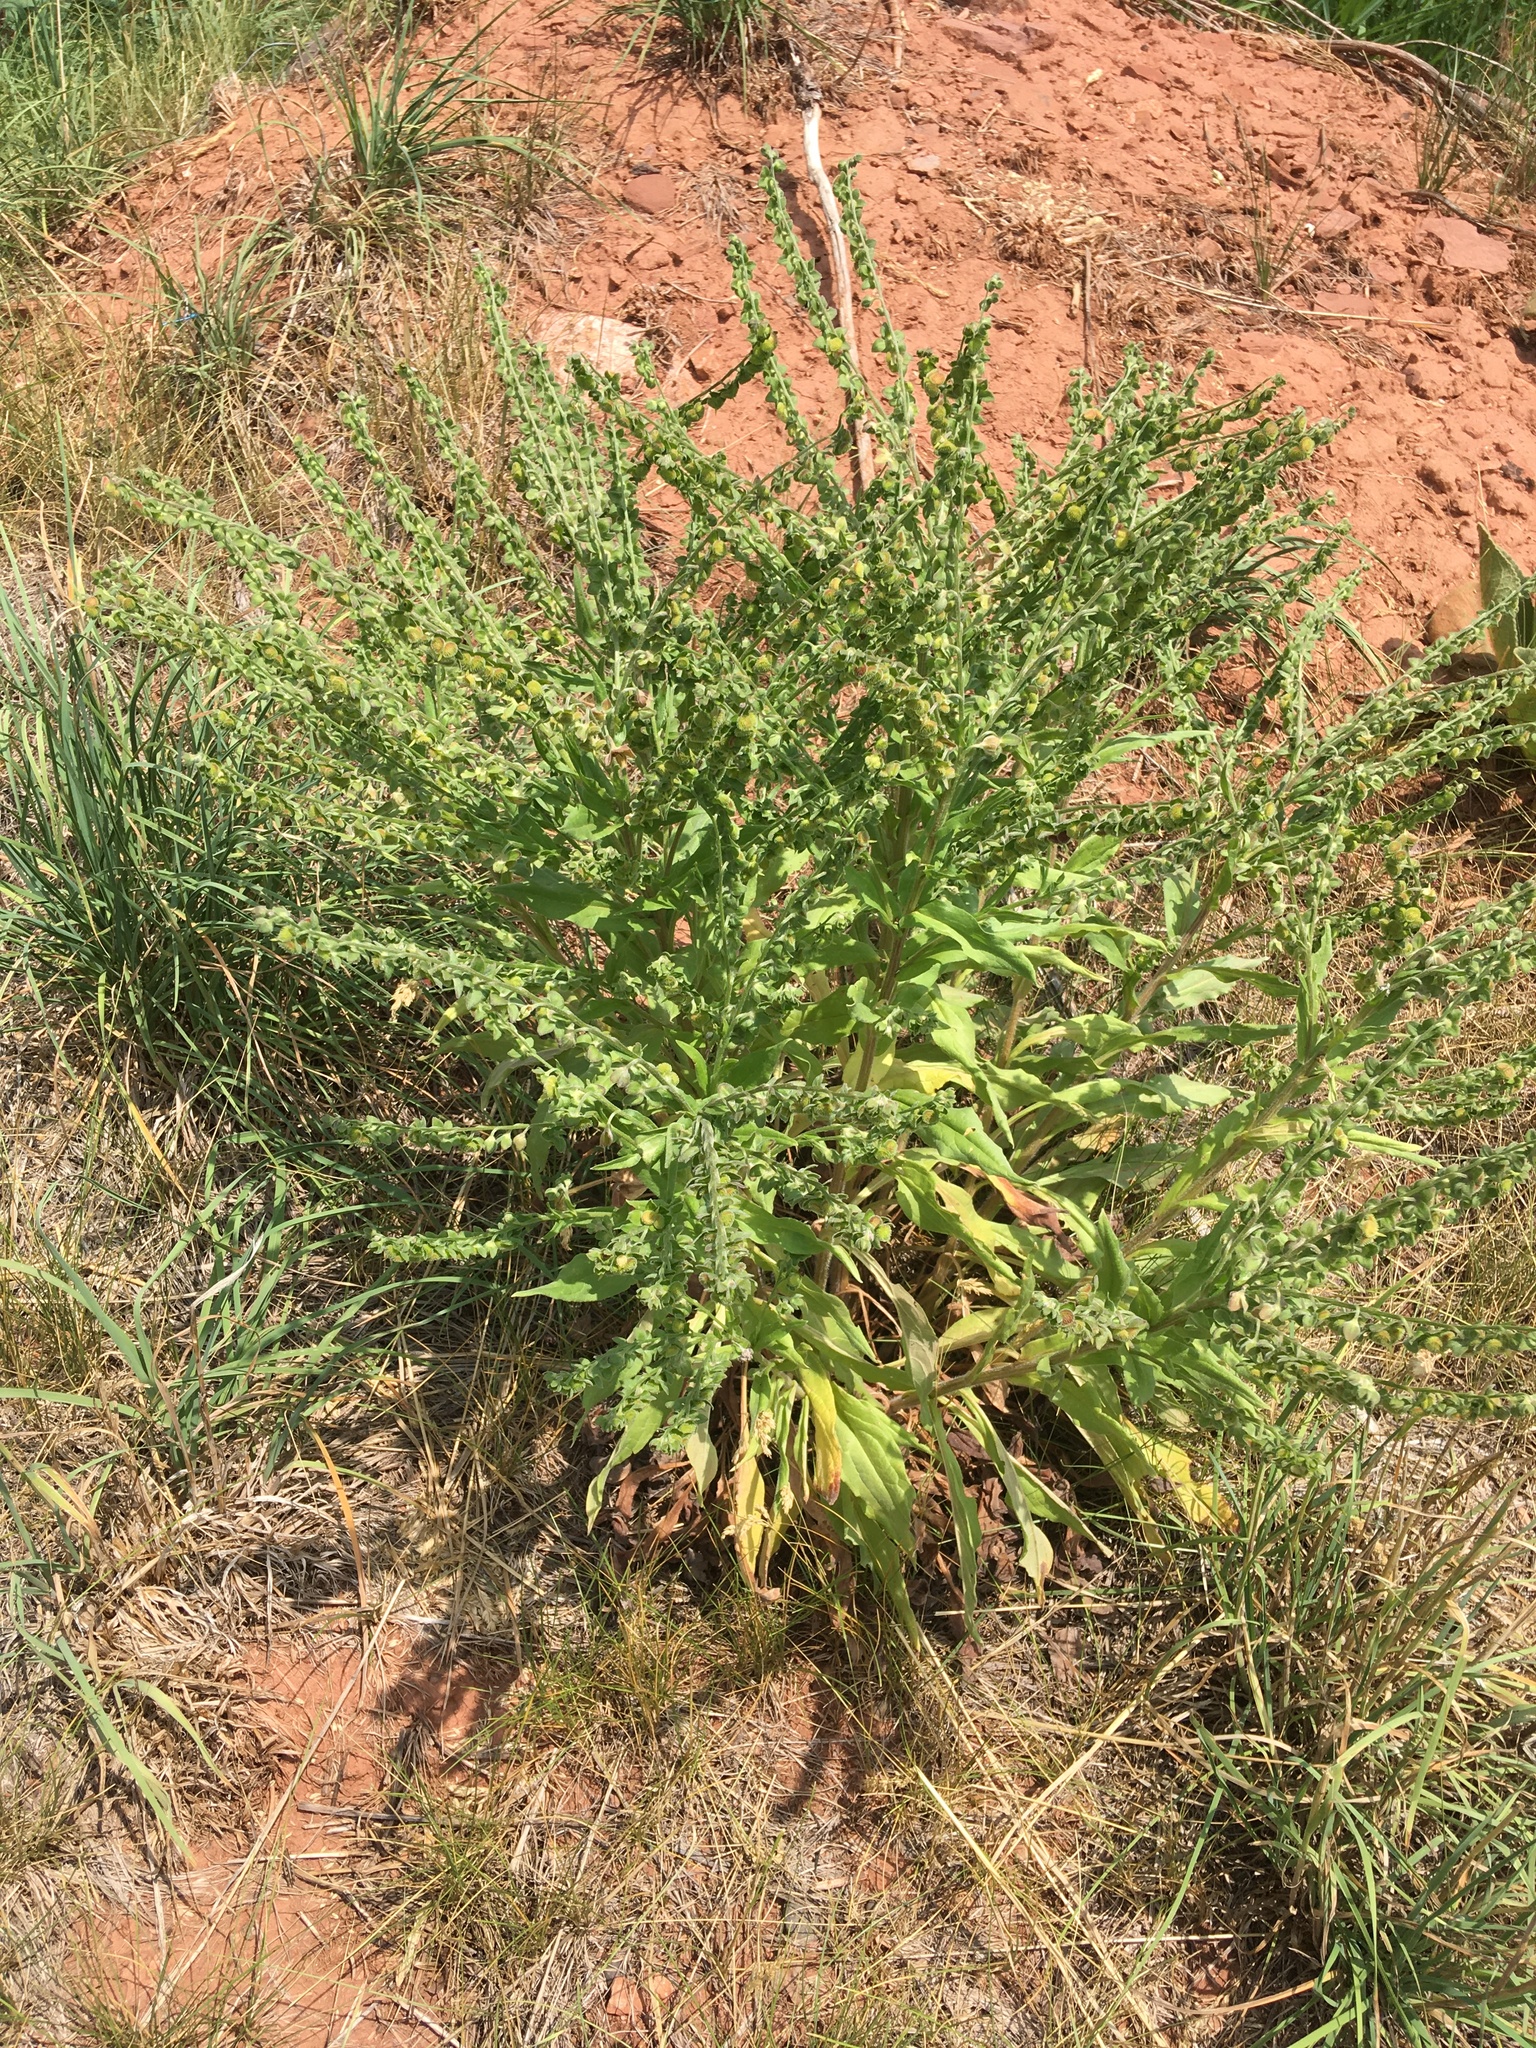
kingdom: Plantae
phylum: Tracheophyta
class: Magnoliopsida
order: Boraginales
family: Boraginaceae
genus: Cynoglossum
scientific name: Cynoglossum officinale
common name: Hound's-tongue
